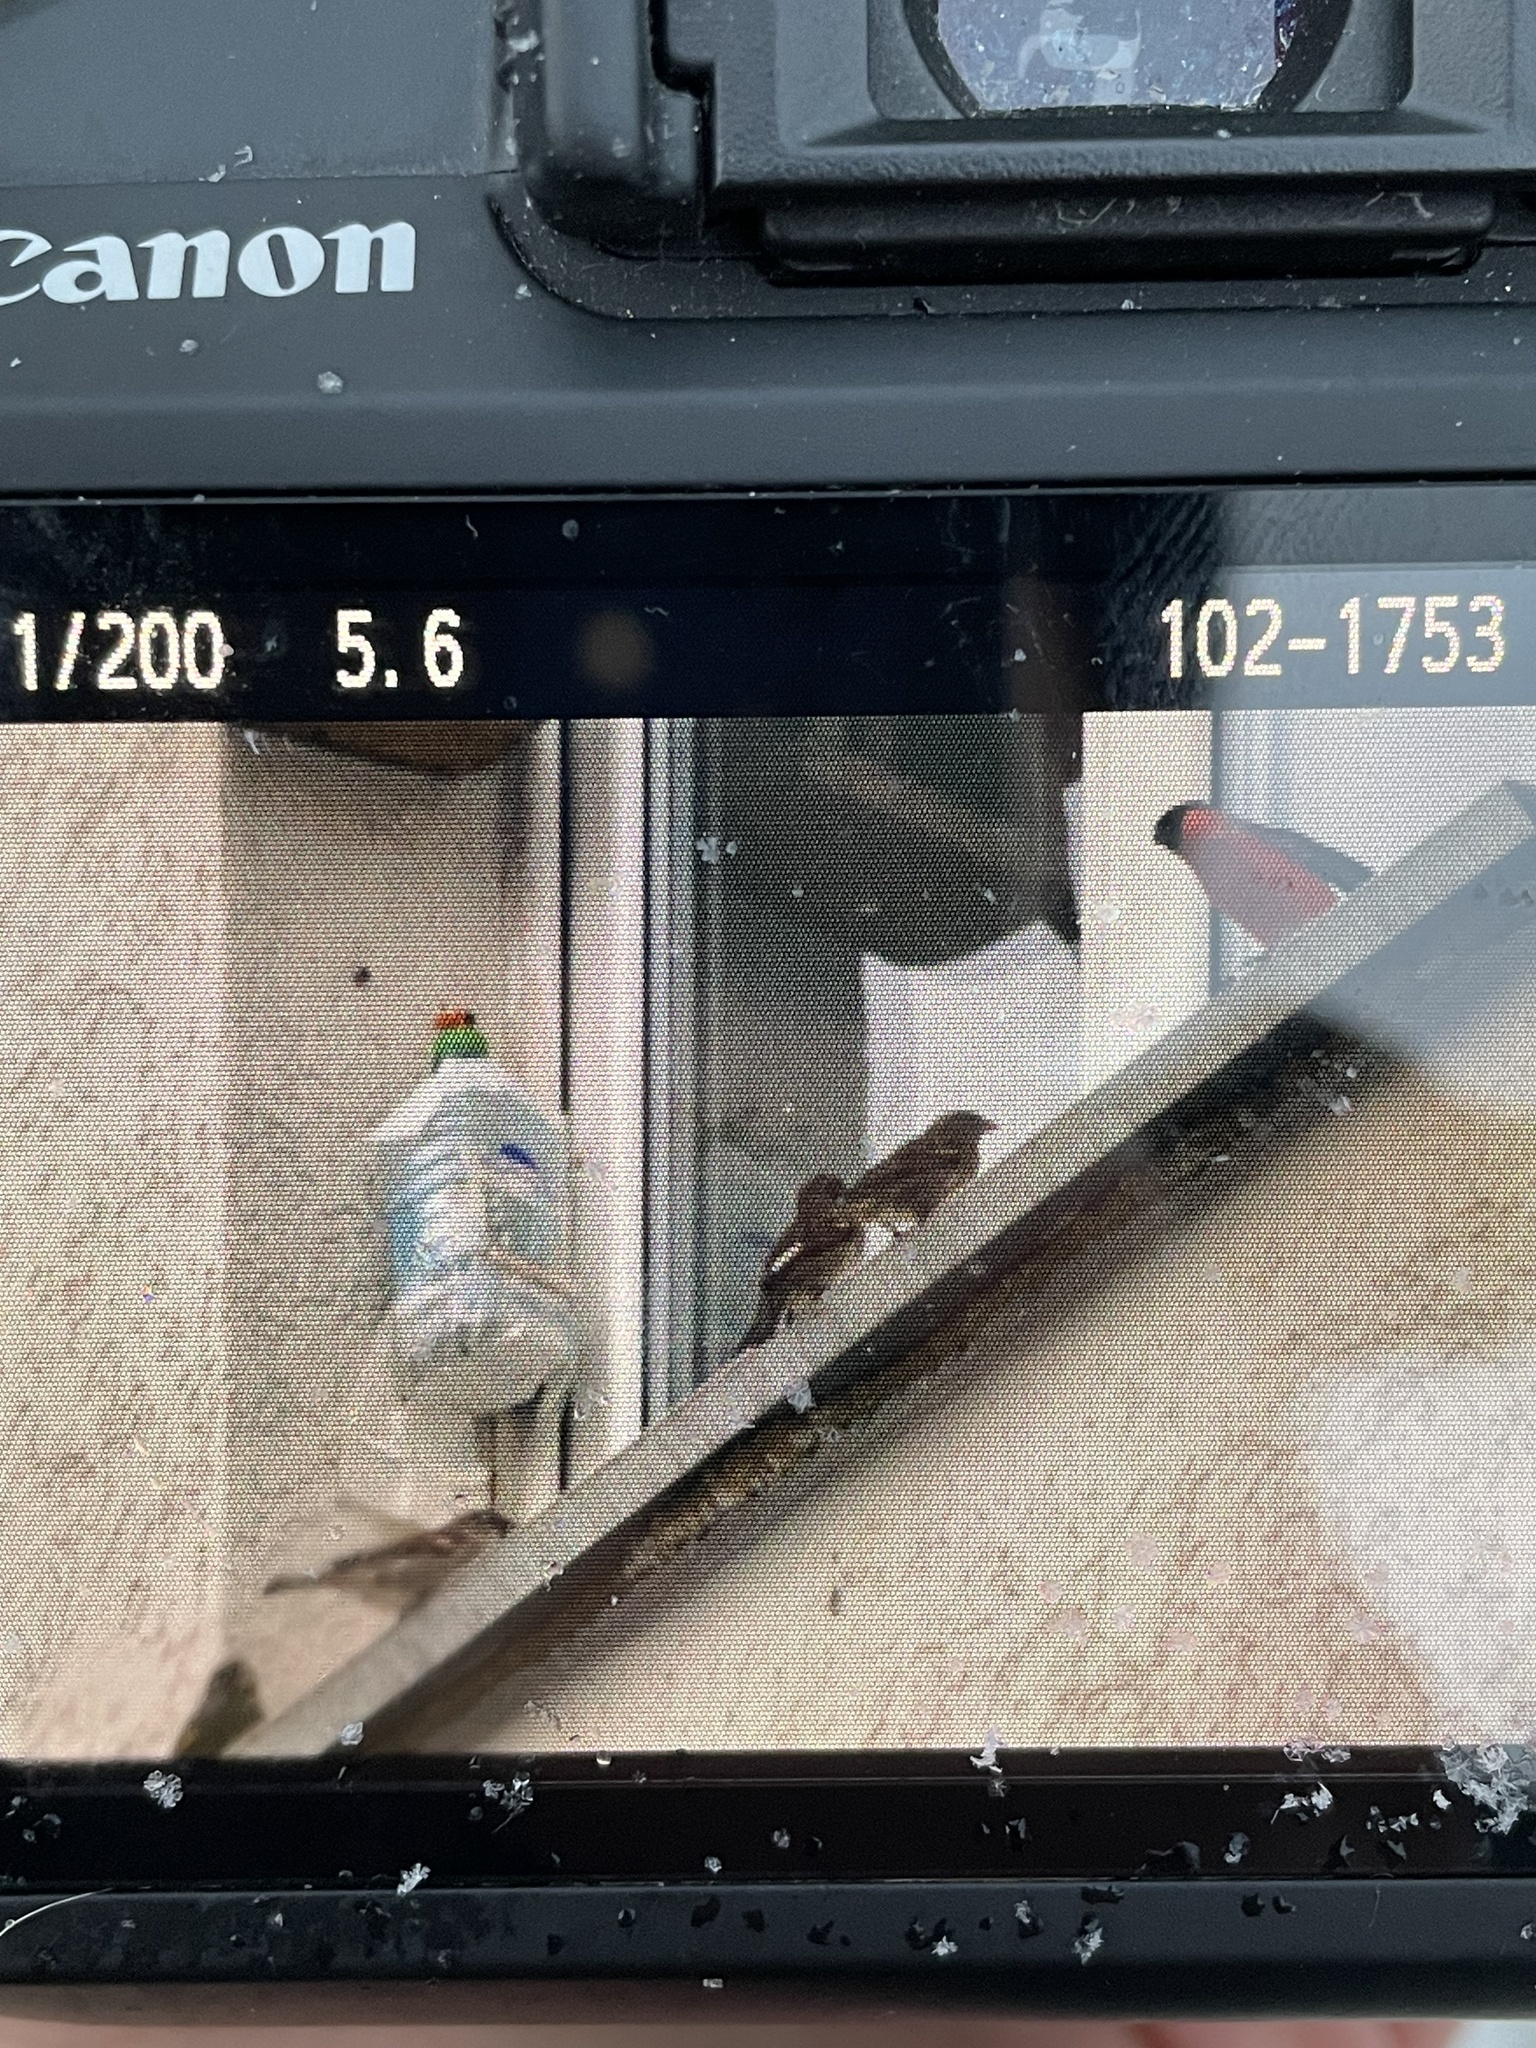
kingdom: Animalia
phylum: Chordata
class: Aves
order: Passeriformes
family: Passeridae
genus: Passer
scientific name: Passer domesticus
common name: House sparrow
